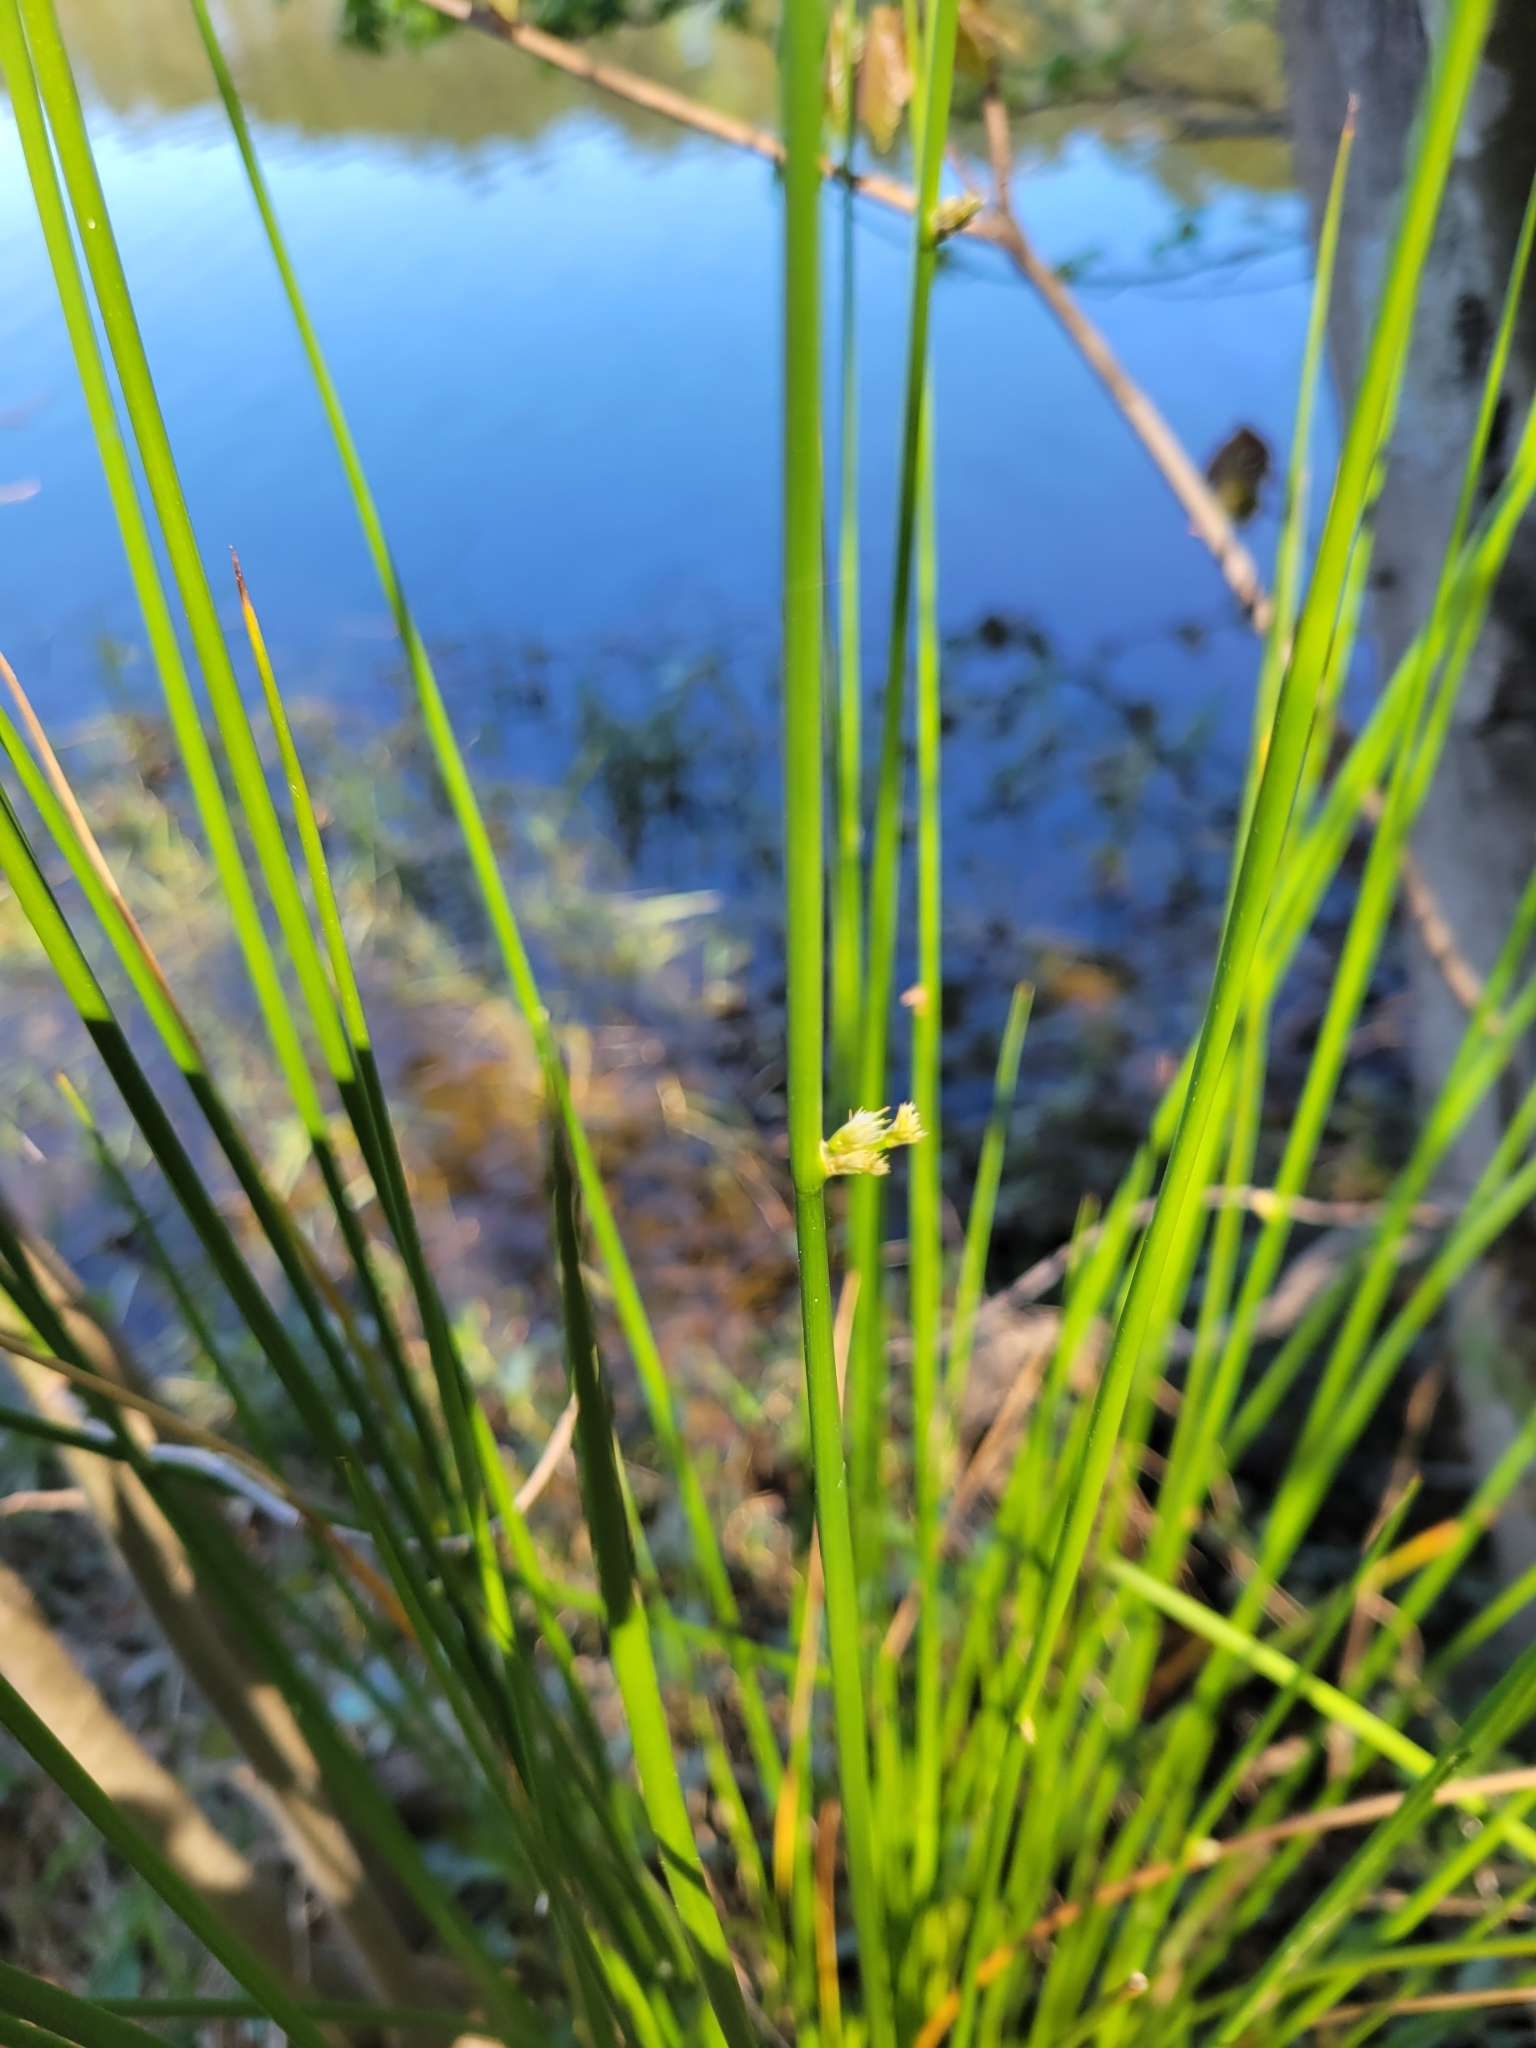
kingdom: Plantae
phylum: Tracheophyta
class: Liliopsida
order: Poales
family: Juncaceae
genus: Juncus
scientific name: Juncus effusus
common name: Soft rush
